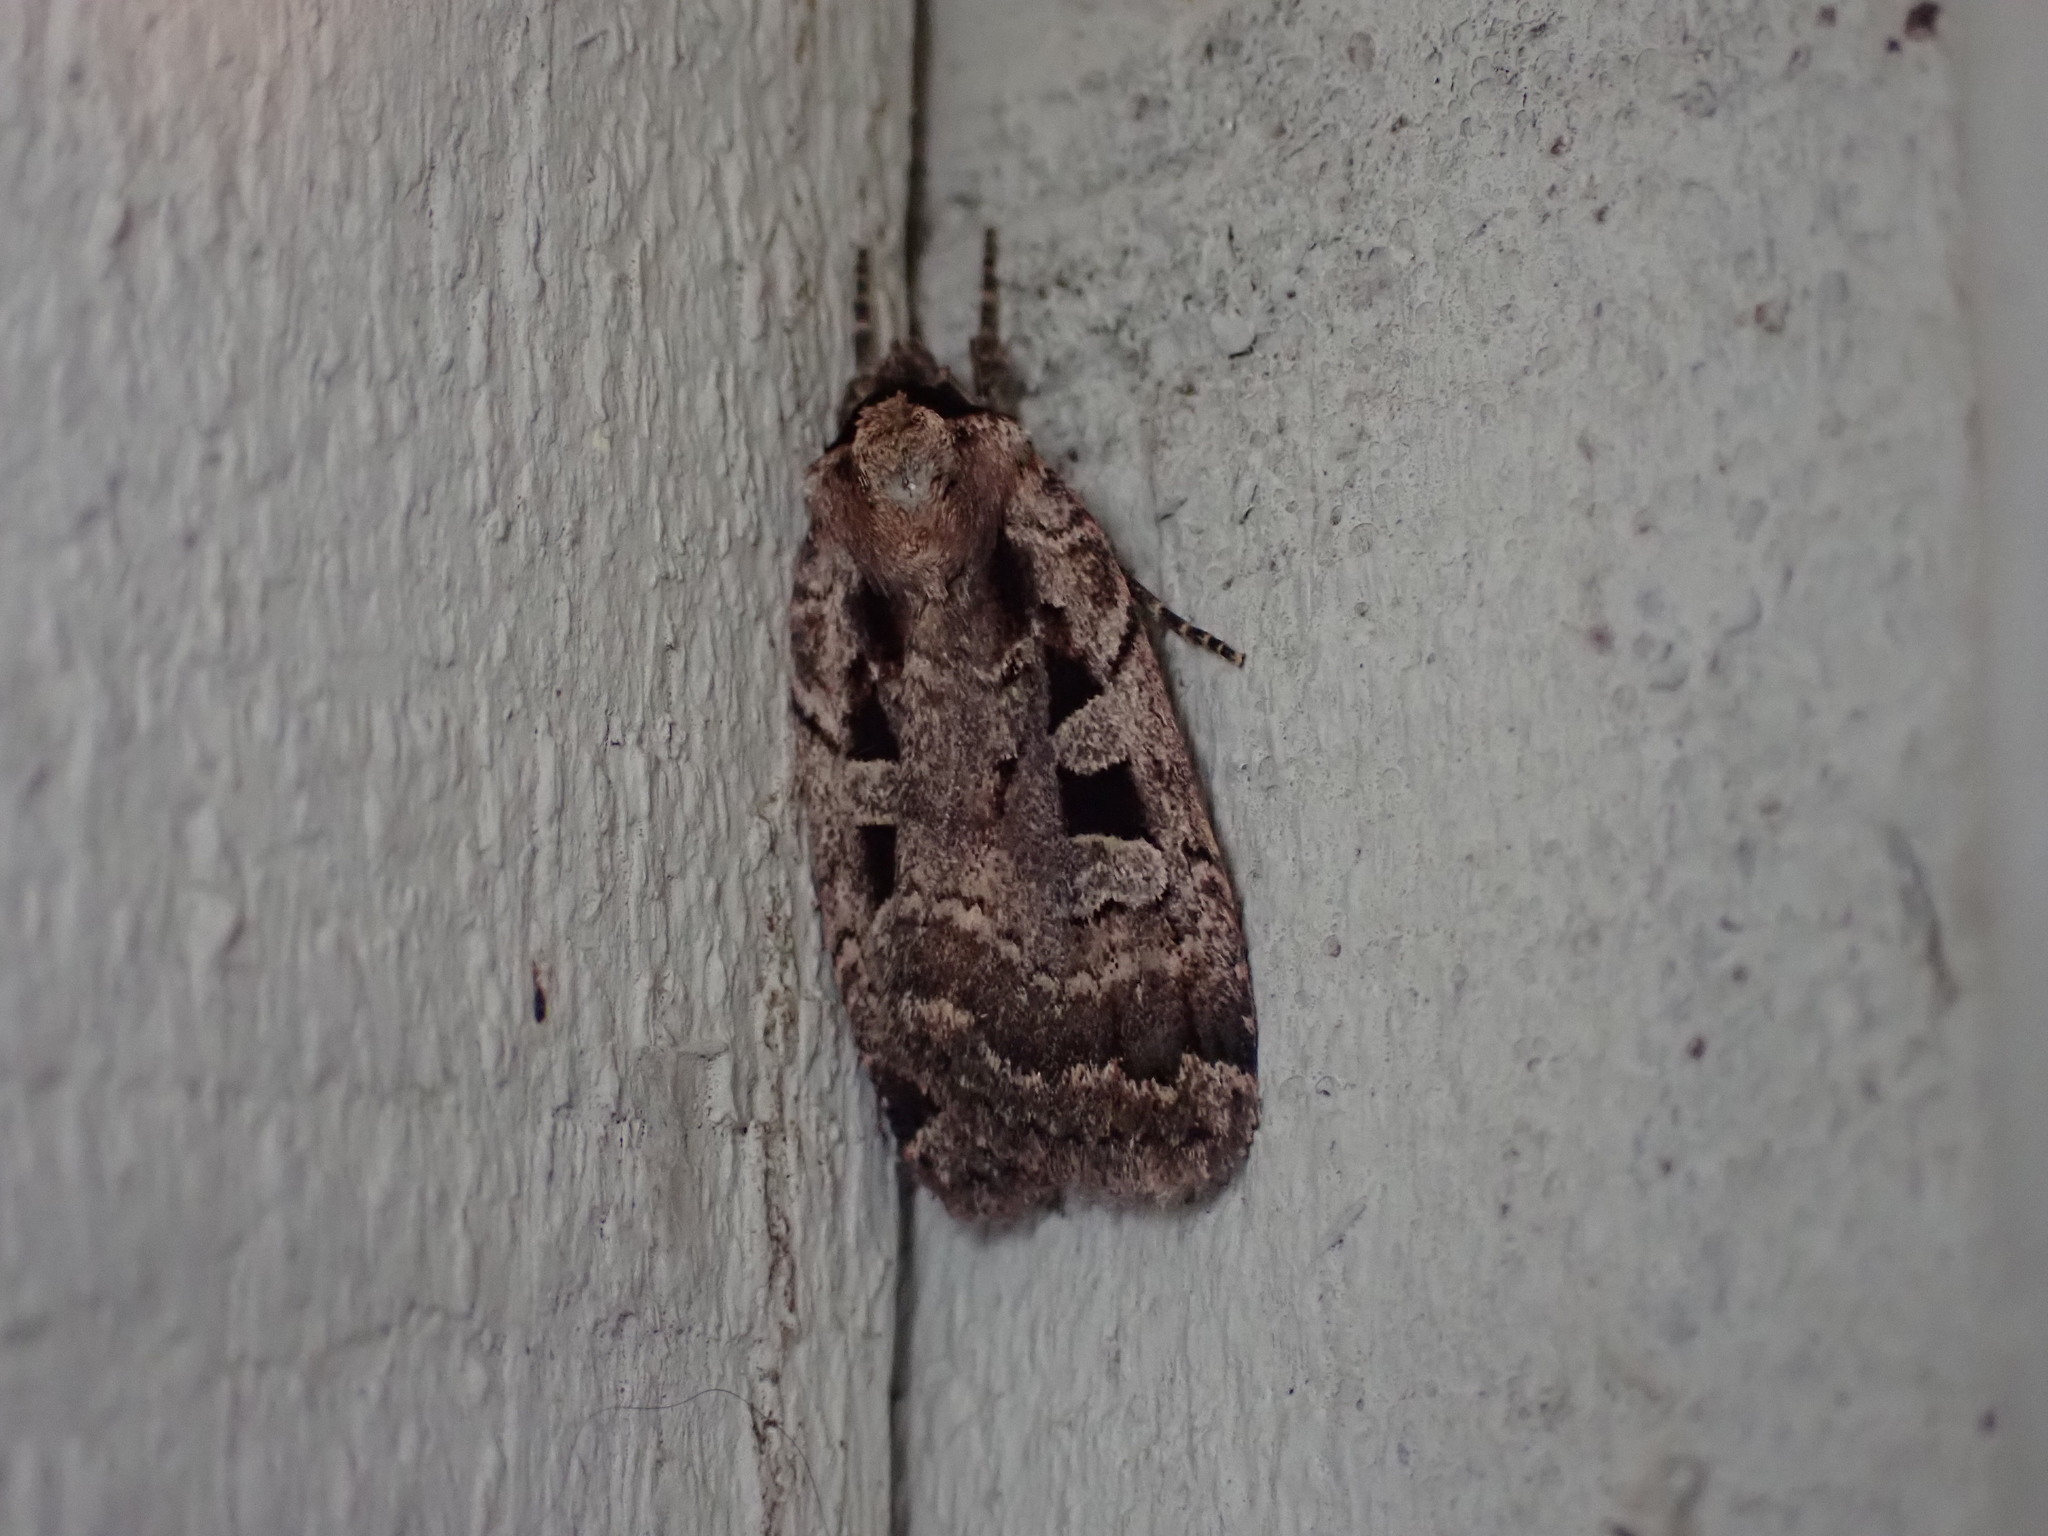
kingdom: Animalia
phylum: Arthropoda
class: Insecta
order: Lepidoptera
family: Noctuidae
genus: Eueretagrotis
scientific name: Eueretagrotis perattentus
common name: Two-spot dart moth
